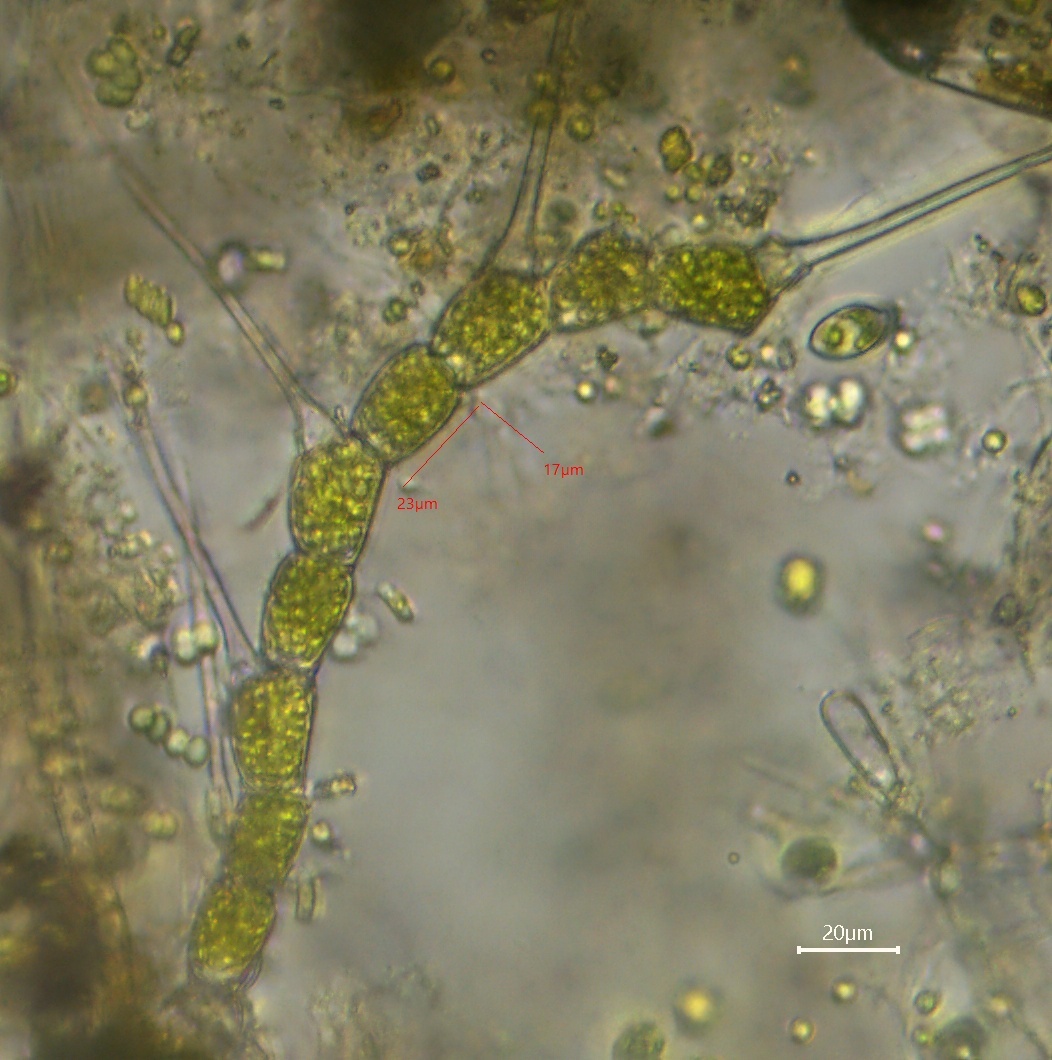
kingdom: Plantae
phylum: Chlorophyta
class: Chlorophyceae
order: Oedogoniales
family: Oedogoniaceae
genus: Bulbochaete
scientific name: Bulbochaete
